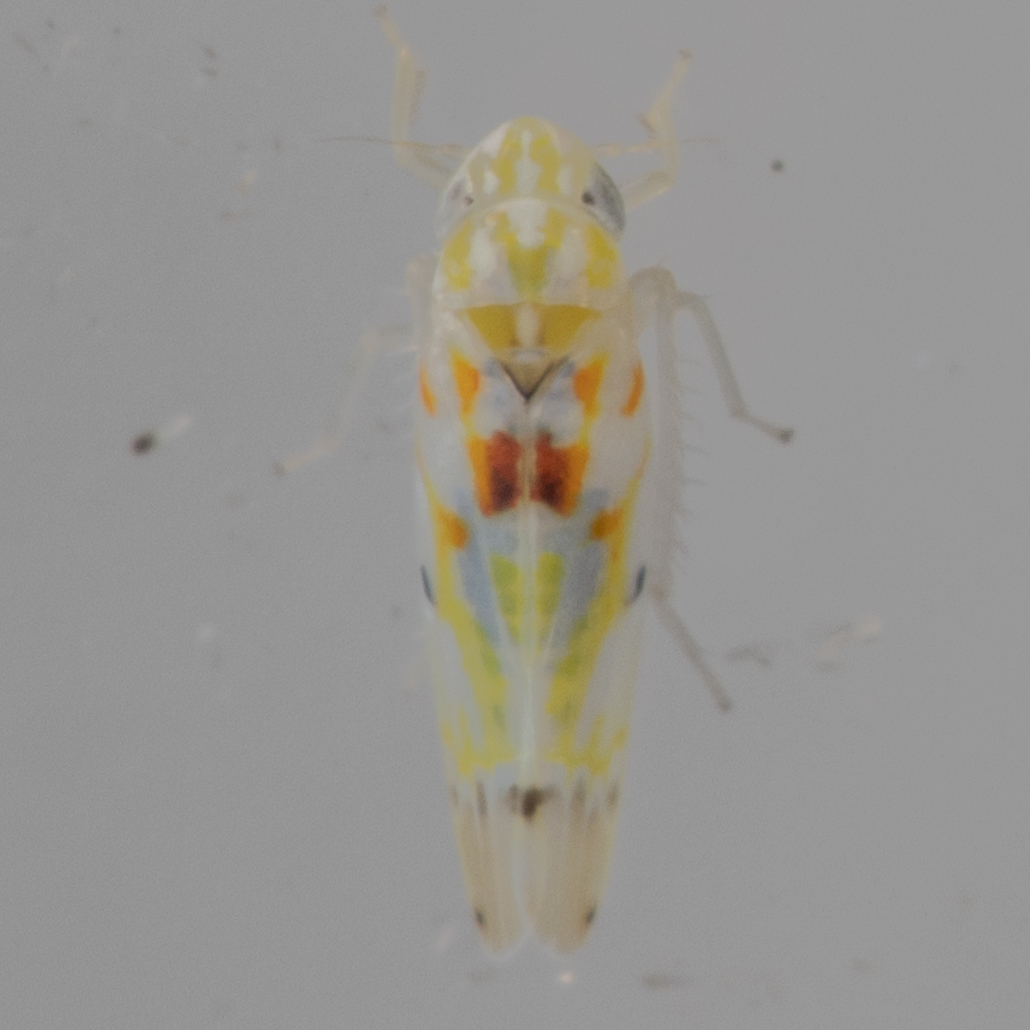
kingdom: Animalia
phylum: Arthropoda
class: Insecta
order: Hemiptera
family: Cicadellidae
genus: Erythroneura
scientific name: Erythroneura octonotata
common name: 8-spotted leafhopper
